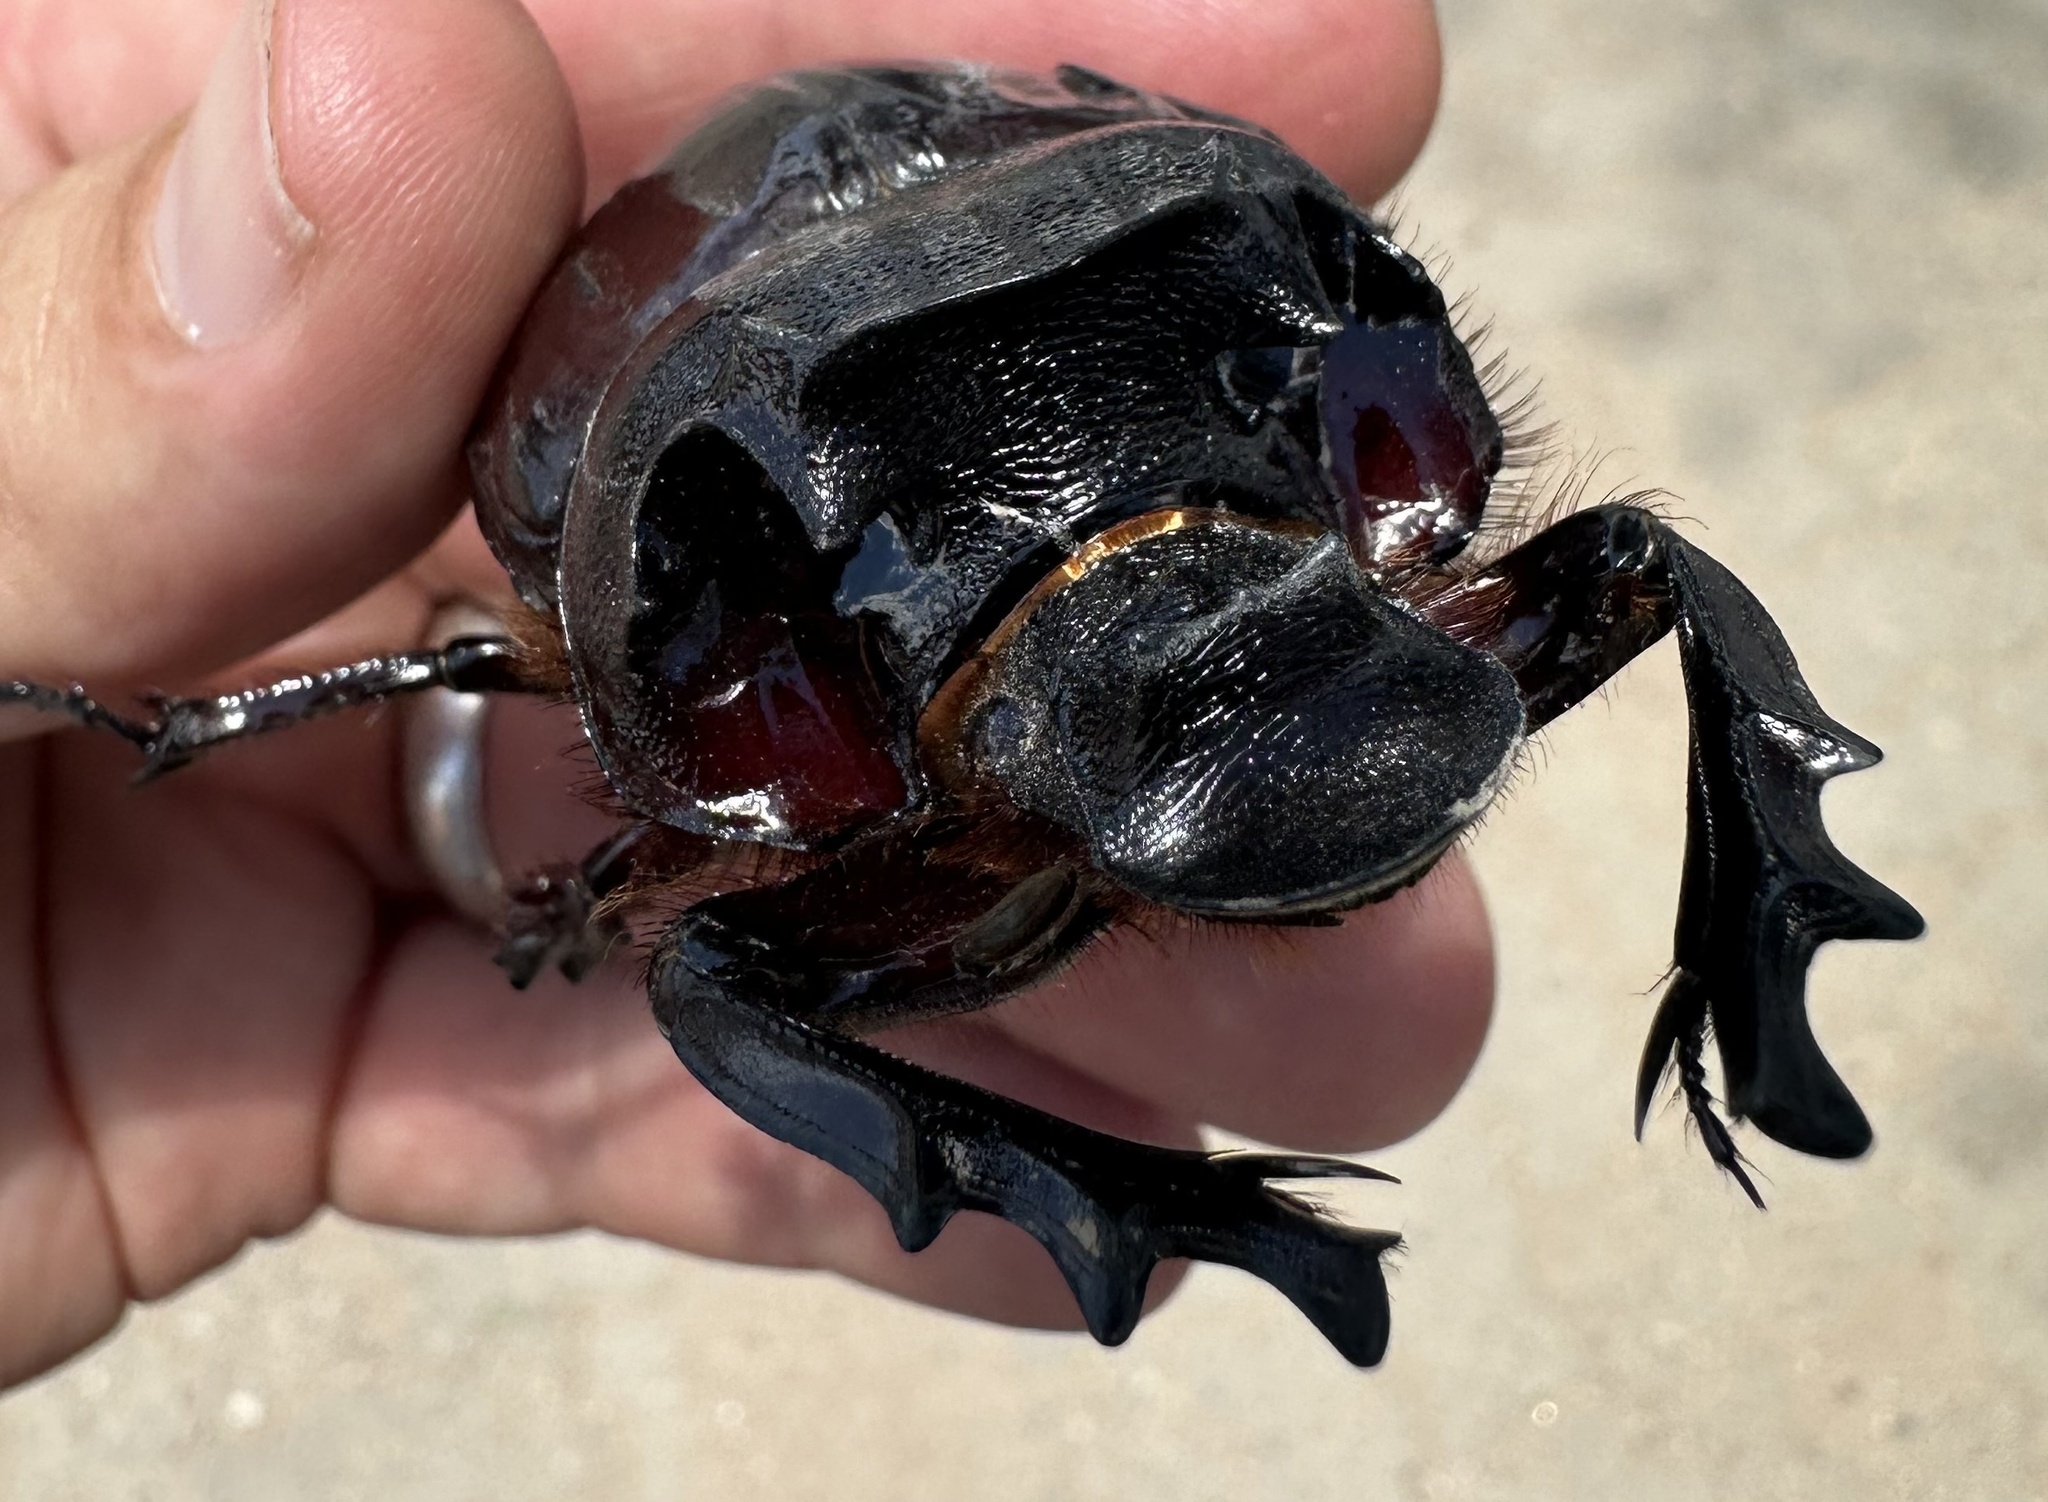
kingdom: Animalia
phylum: Arthropoda
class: Insecta
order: Coleoptera
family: Scarabaeidae
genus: Heliocopris
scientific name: Heliocopris japetus
